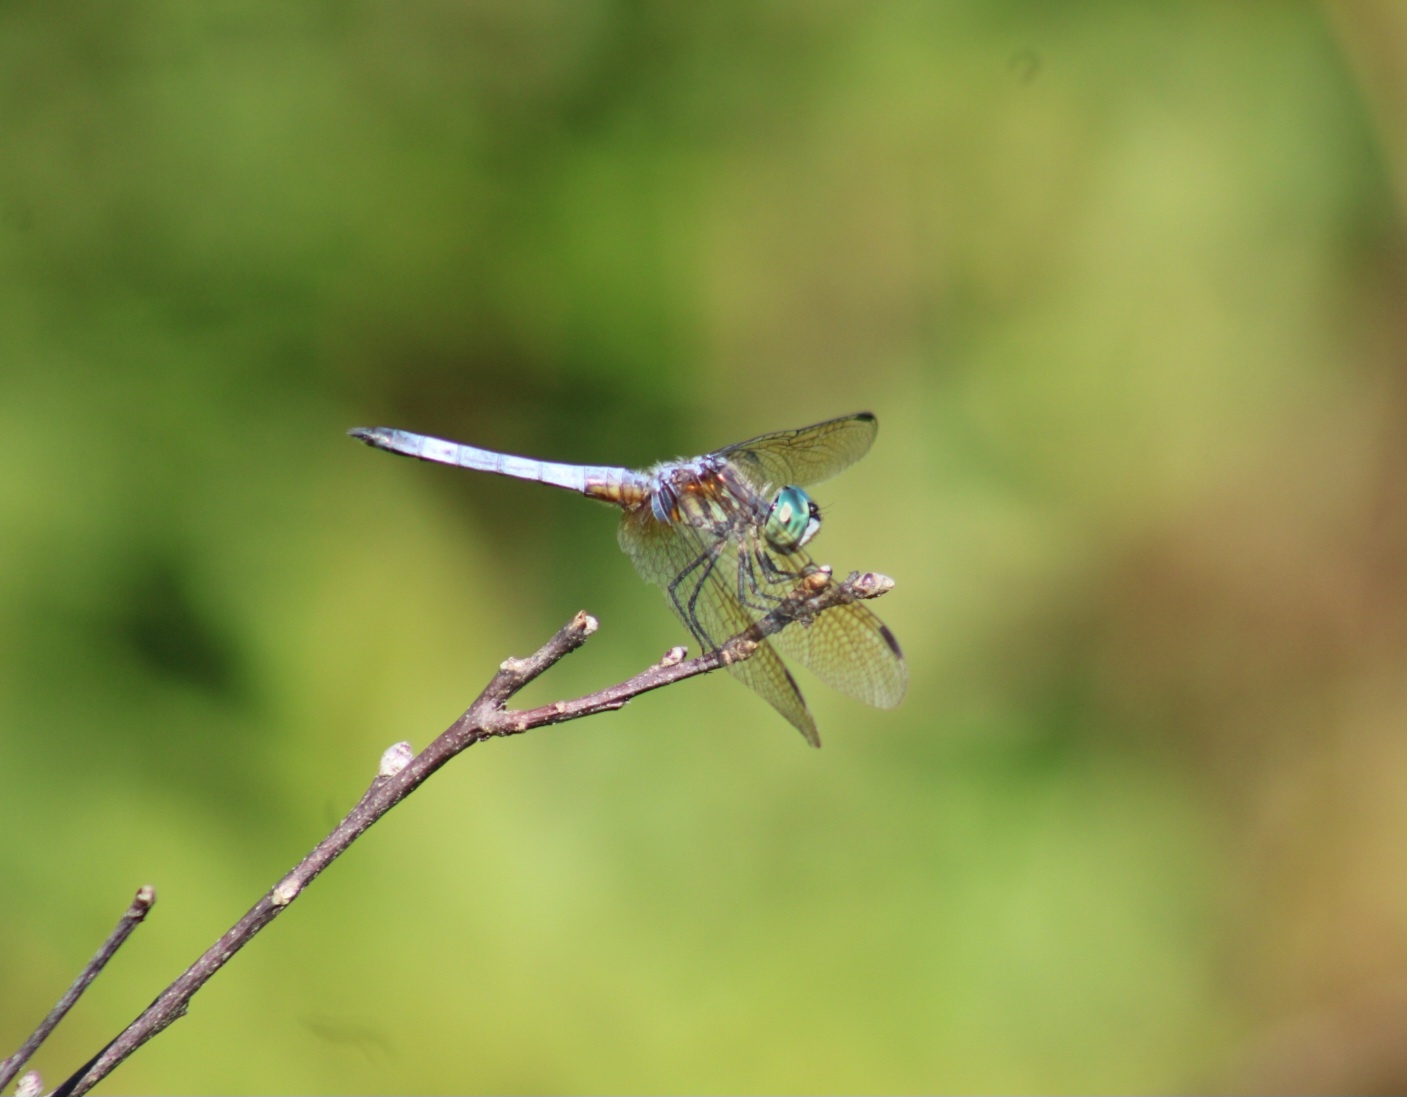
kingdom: Animalia
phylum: Arthropoda
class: Insecta
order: Odonata
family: Libellulidae
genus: Pachydiplax
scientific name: Pachydiplax longipennis
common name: Blue dasher
